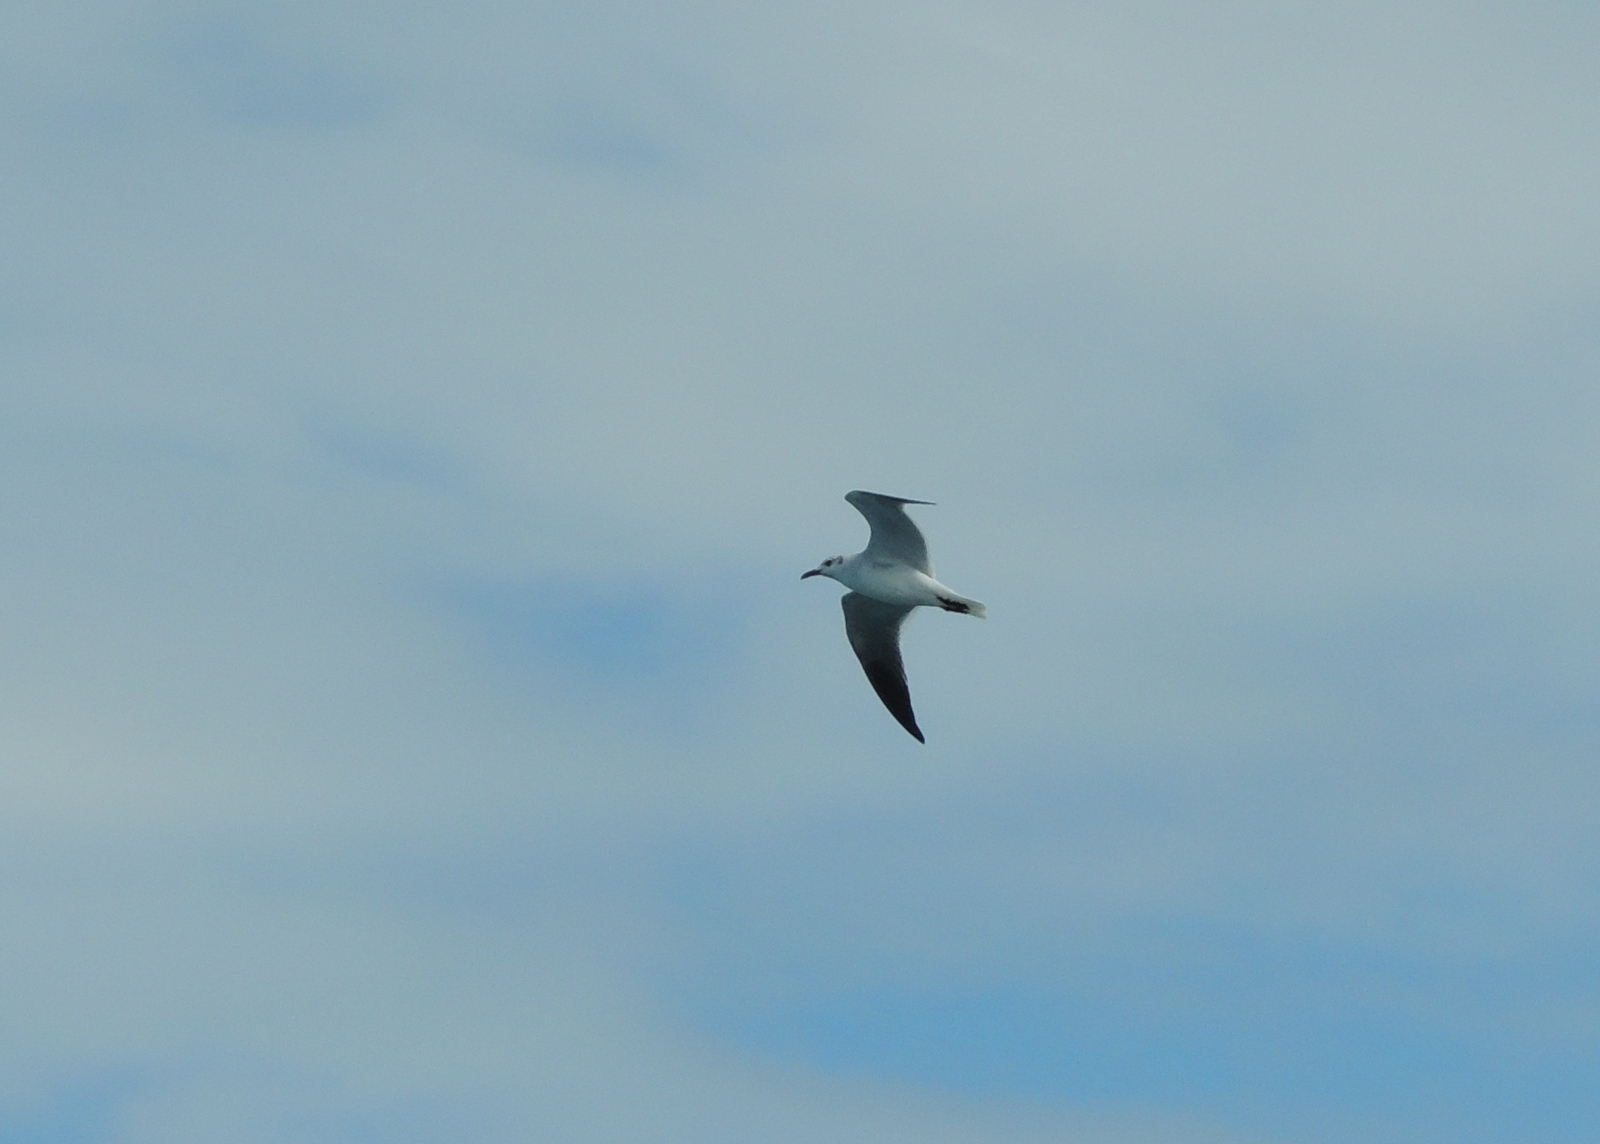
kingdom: Animalia
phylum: Chordata
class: Aves
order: Charadriiformes
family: Laridae
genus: Leucophaeus
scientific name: Leucophaeus atricilla
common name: Laughing gull
